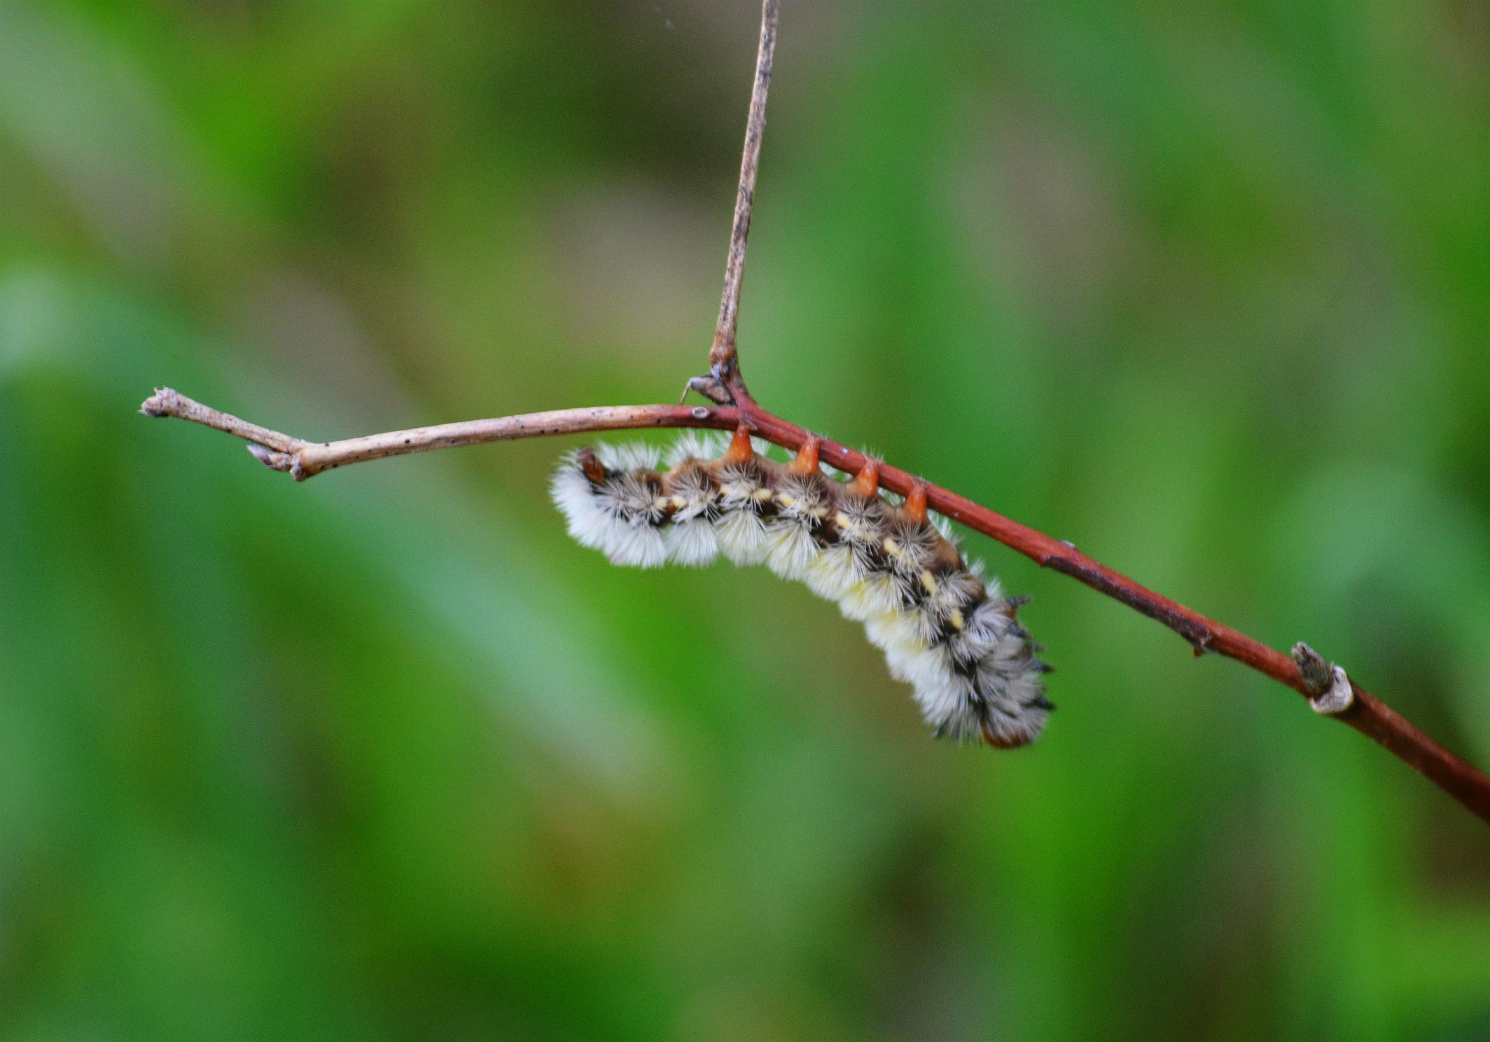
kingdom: Animalia
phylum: Arthropoda
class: Insecta
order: Lepidoptera
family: Erebidae
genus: Ctenucha
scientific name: Ctenucha virginica
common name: Virginia ctenucha moth
